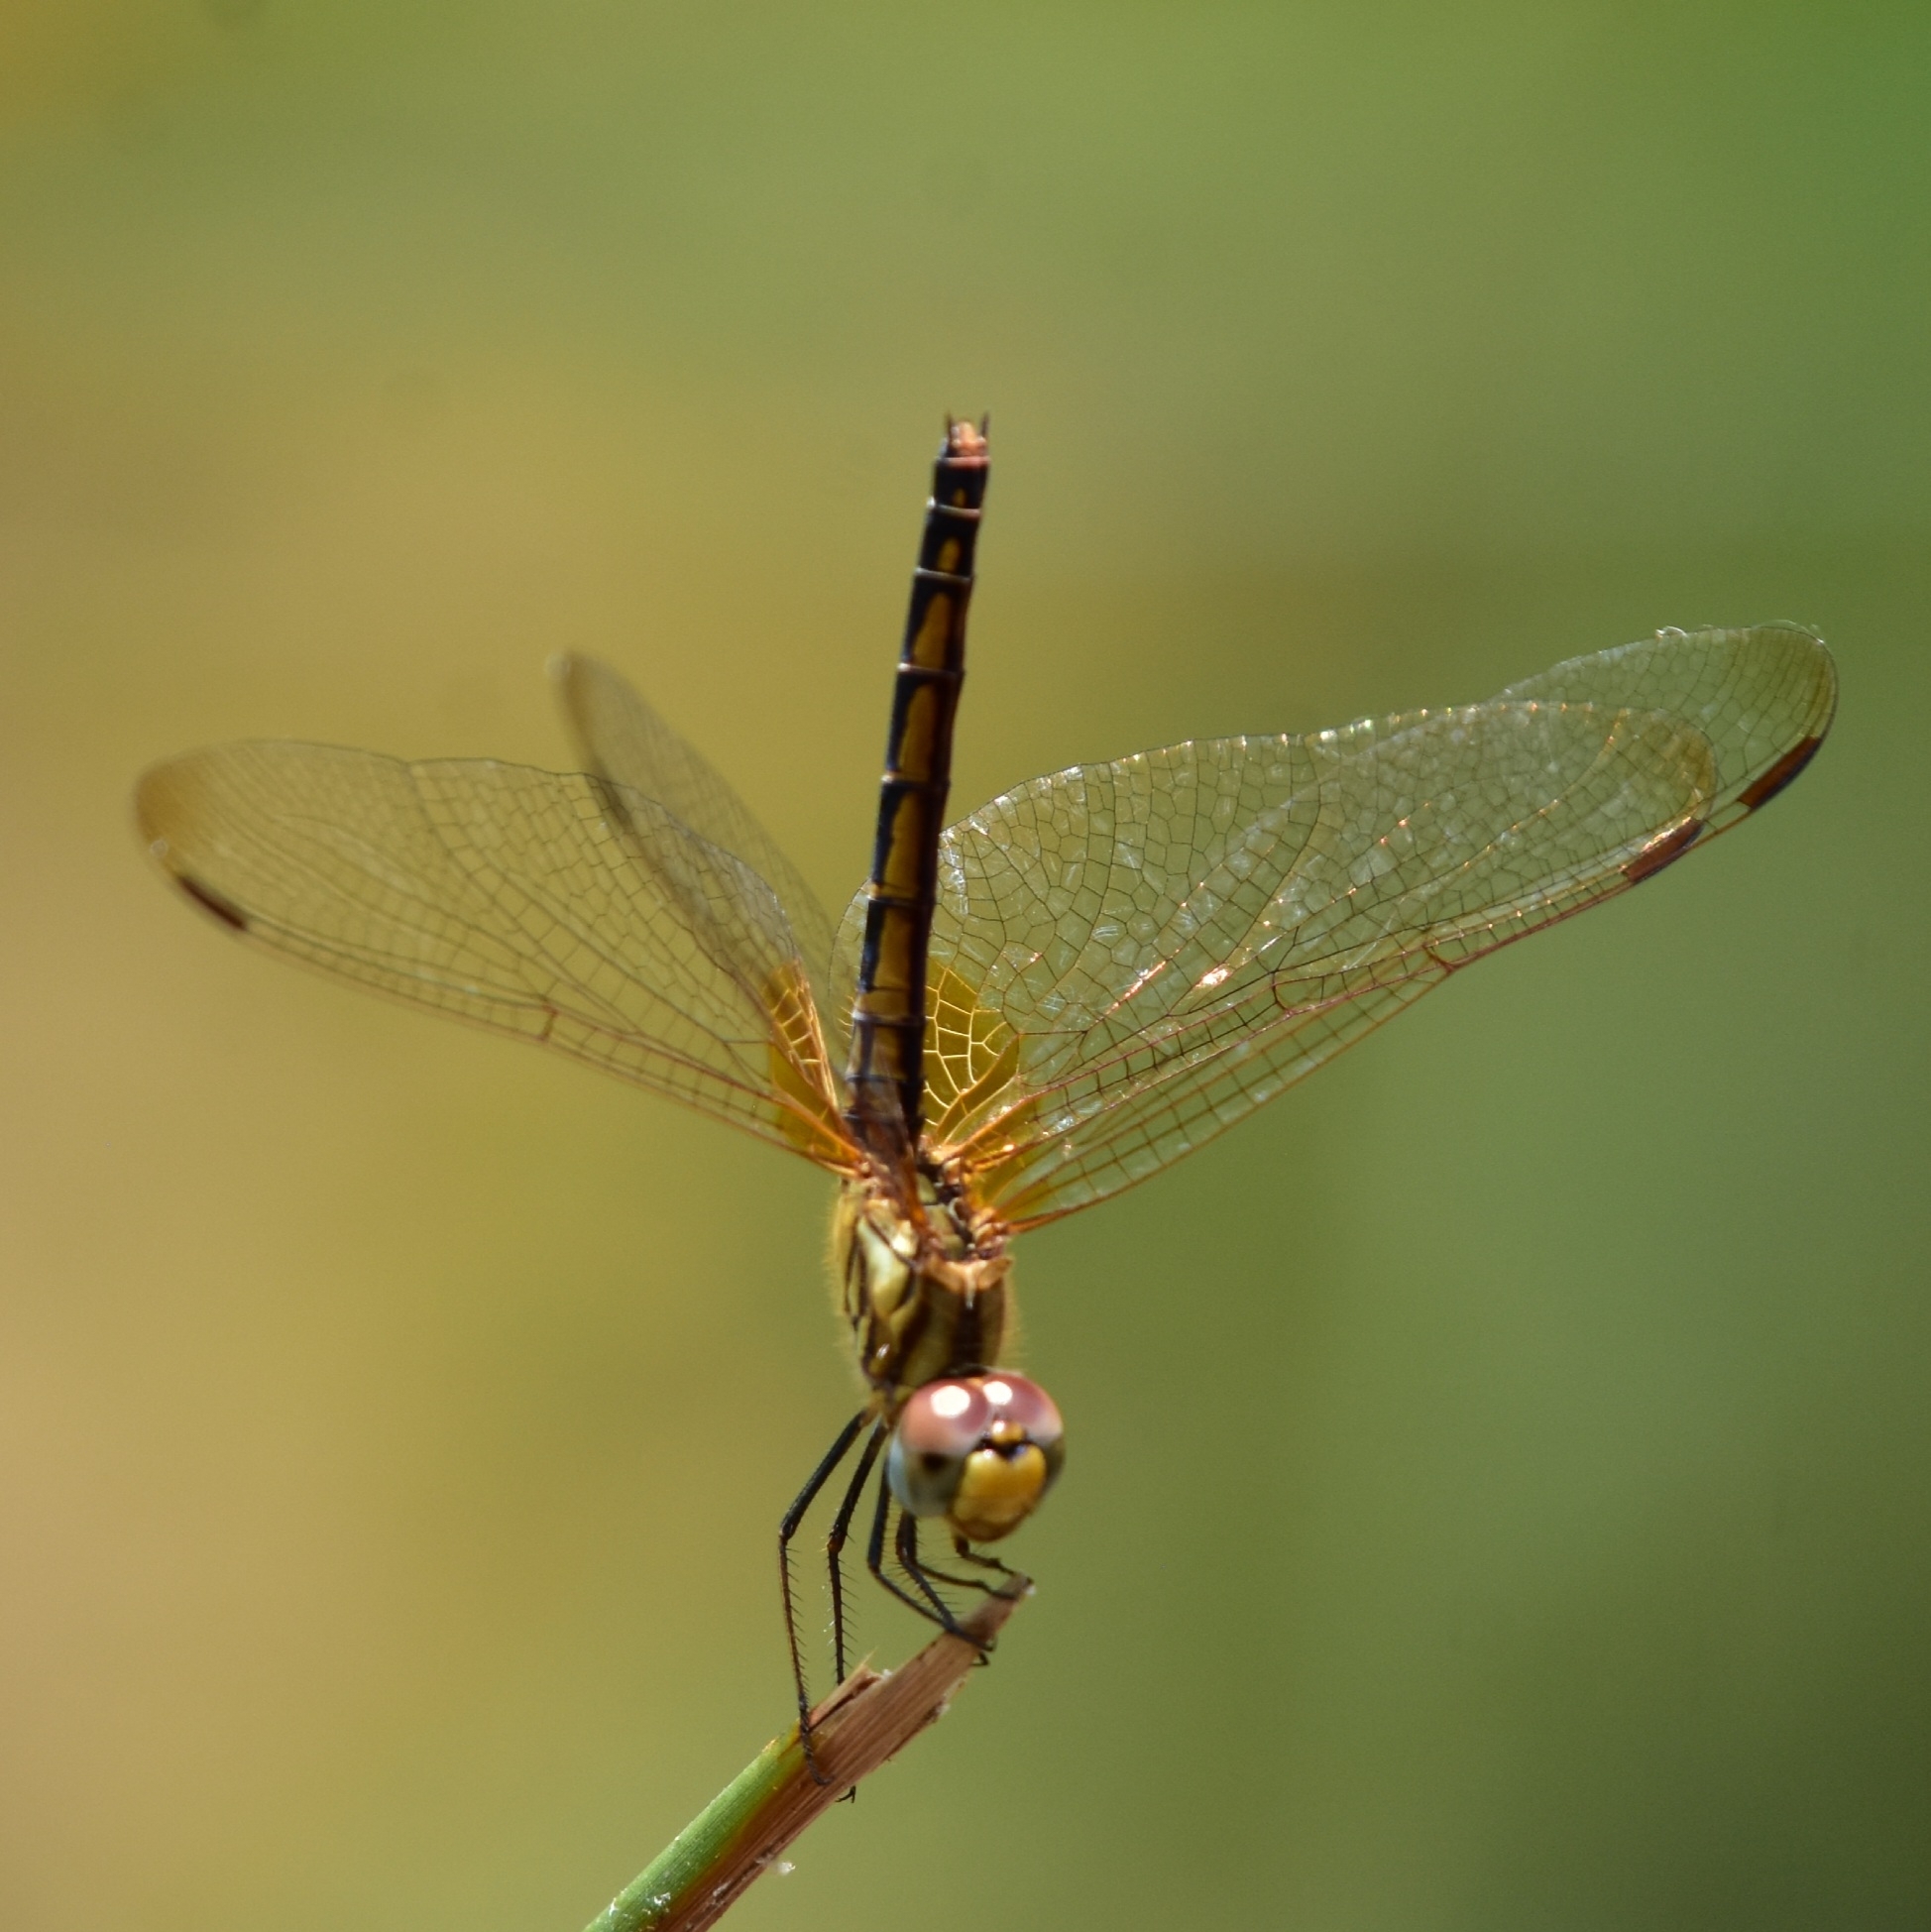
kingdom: Animalia
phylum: Arthropoda
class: Insecta
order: Odonata
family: Libellulidae
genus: Trithemis
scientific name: Trithemis aurora
